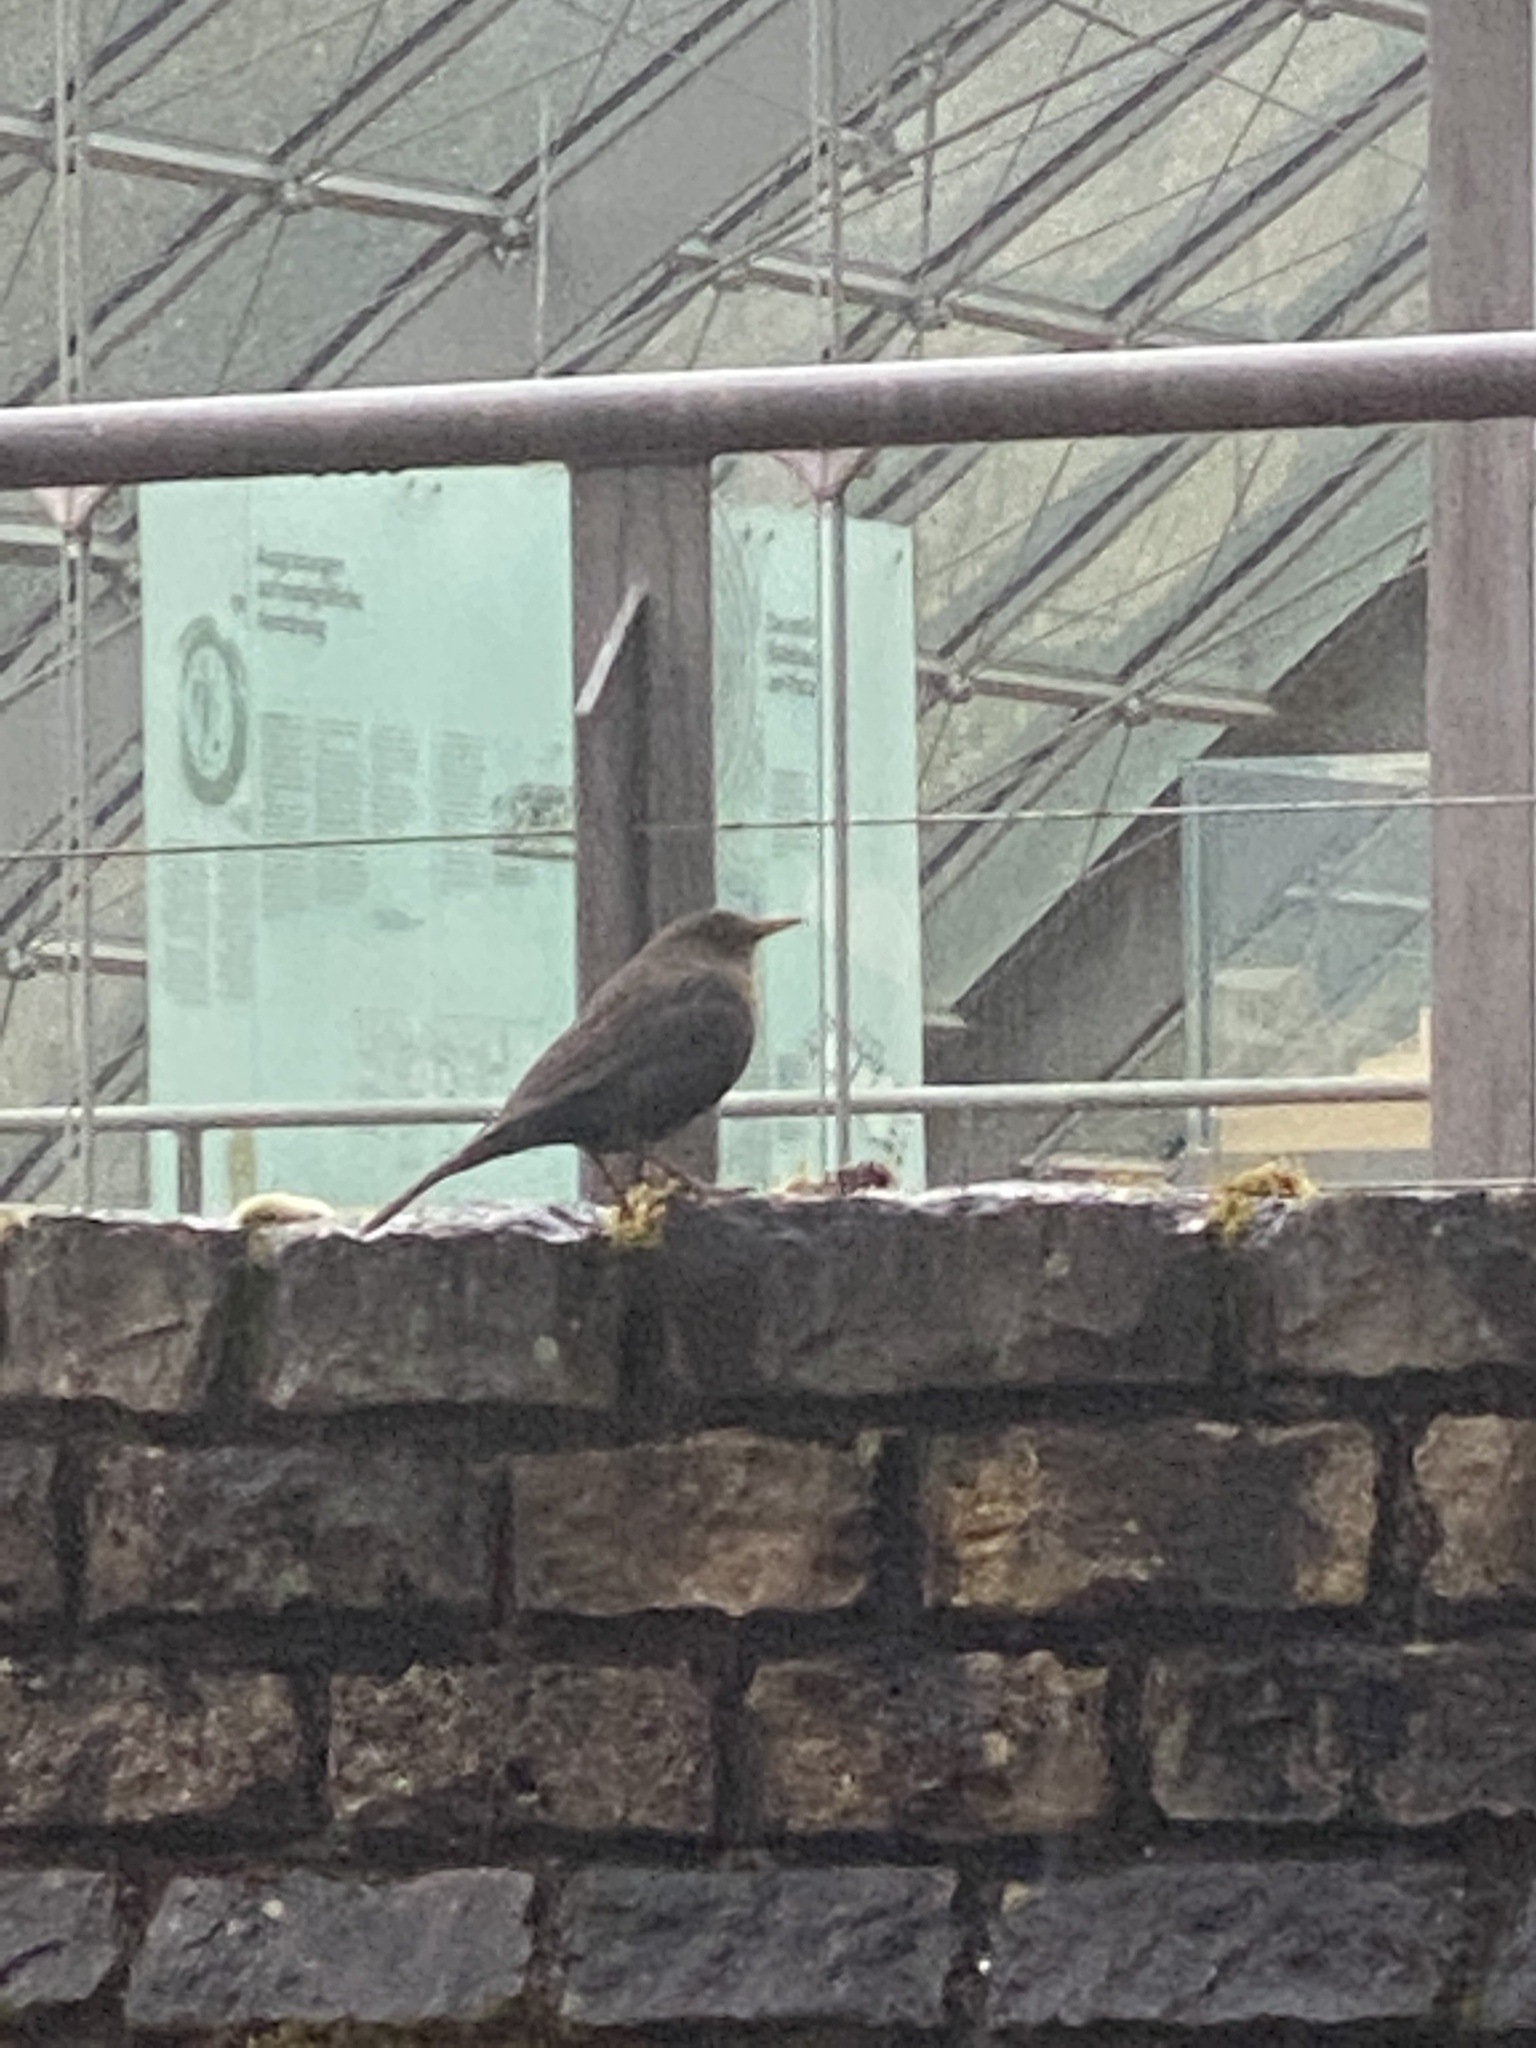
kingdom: Animalia
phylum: Chordata
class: Aves
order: Passeriformes
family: Turdidae
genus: Turdus
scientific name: Turdus merula
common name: Common blackbird
